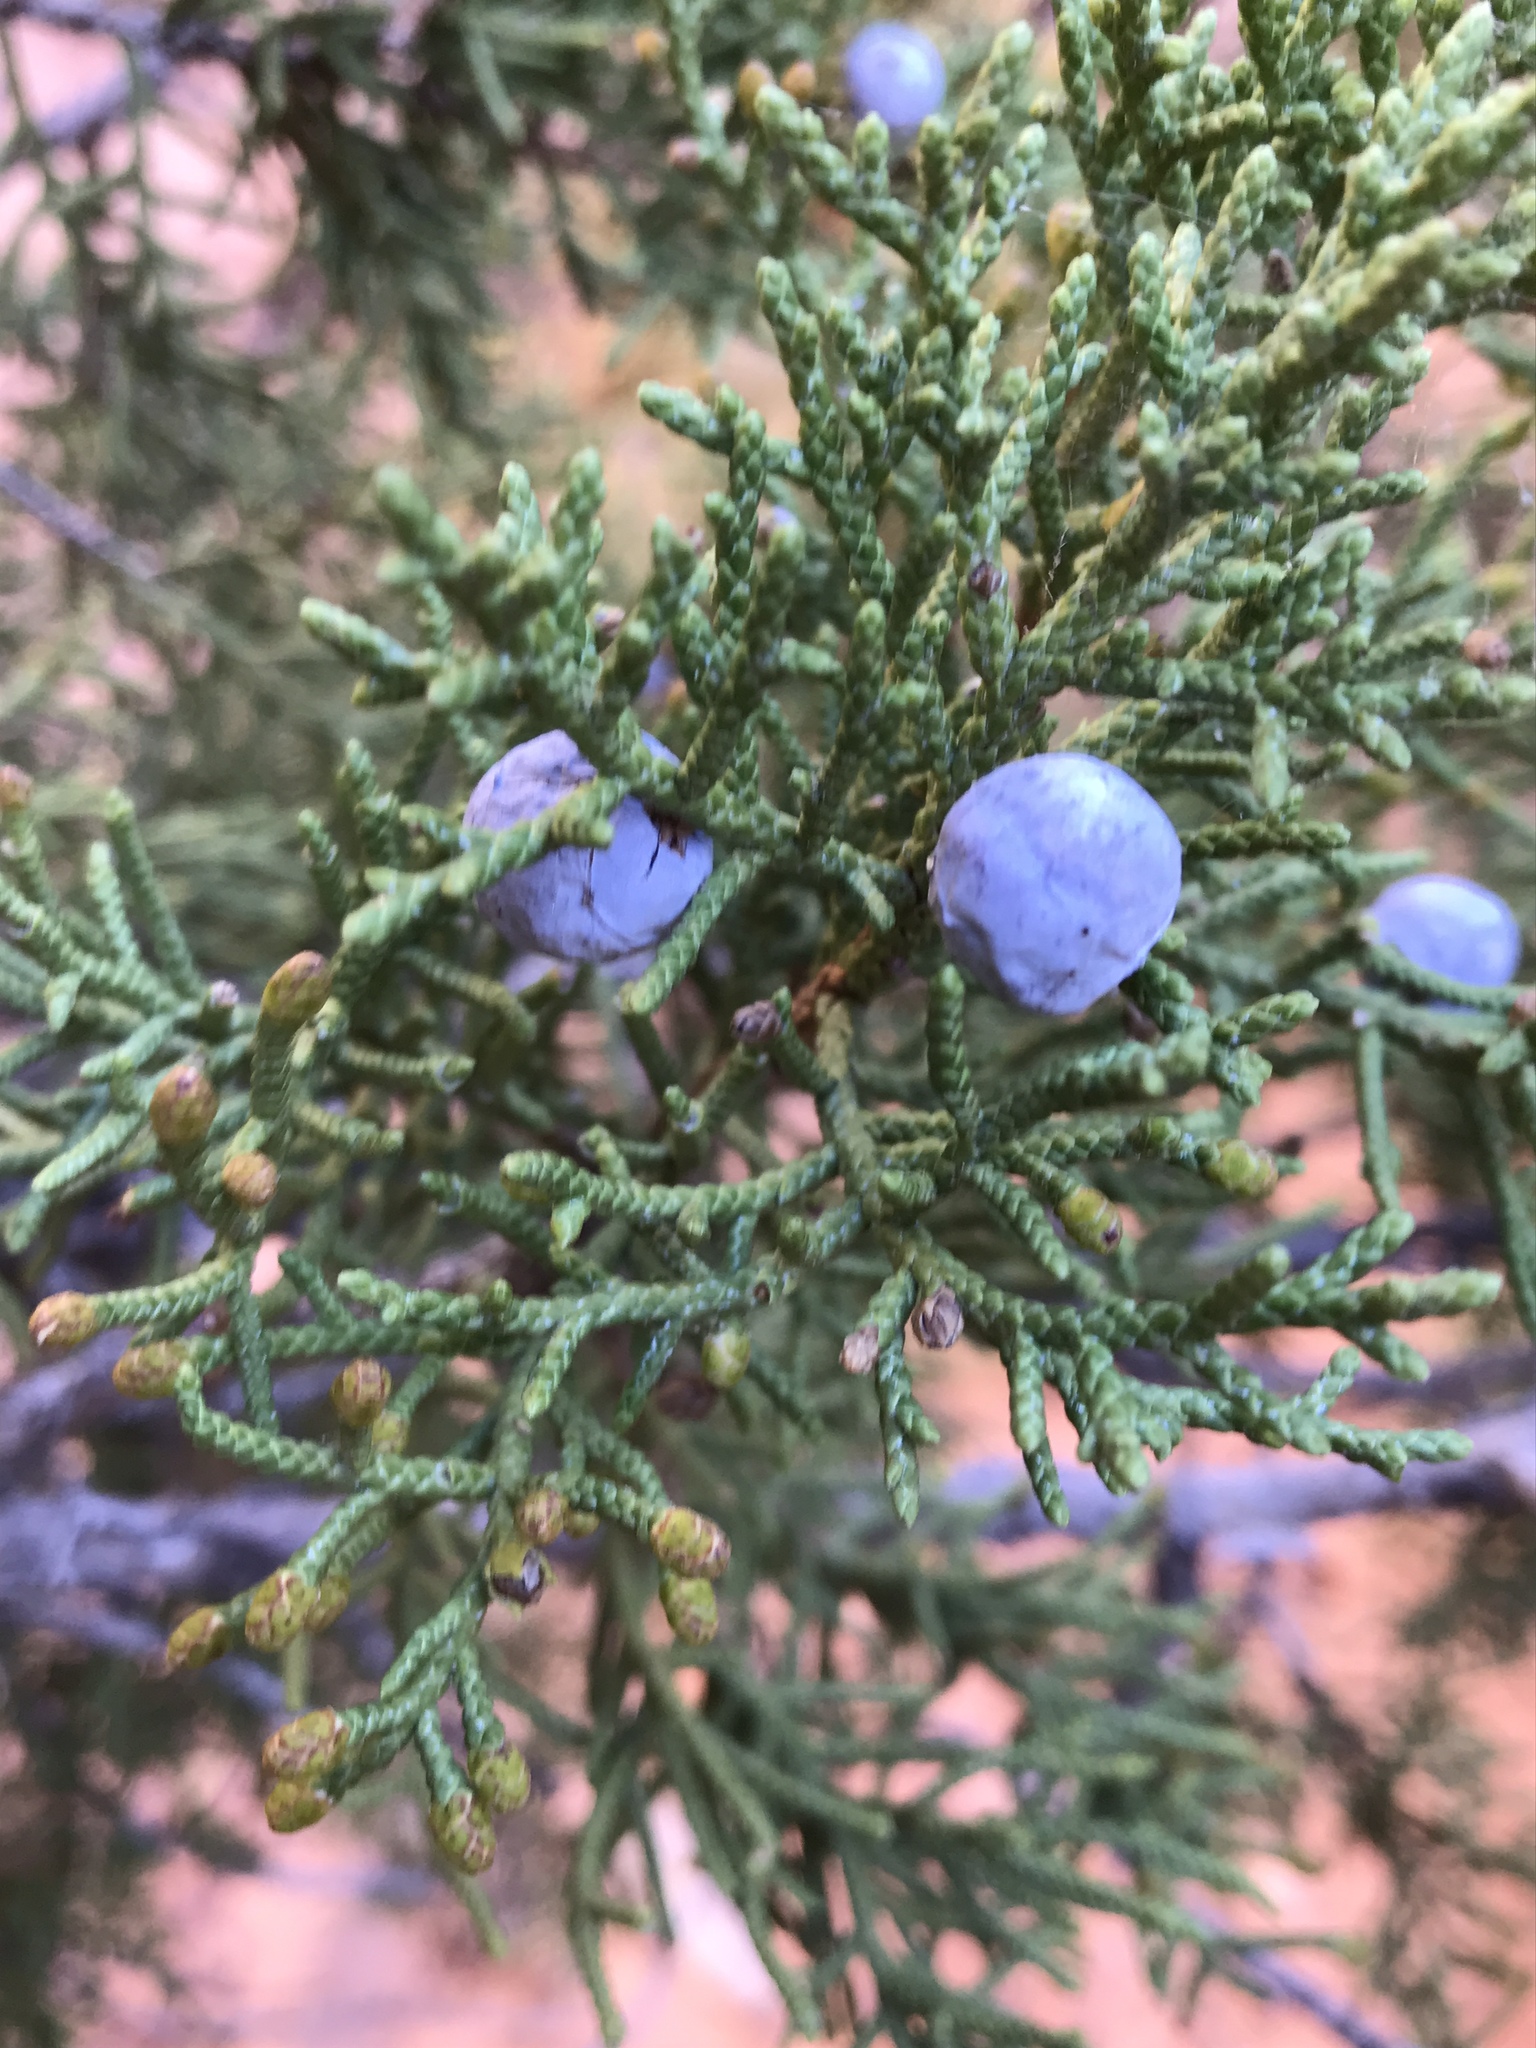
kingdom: Plantae
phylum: Tracheophyta
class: Pinopsida
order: Pinales
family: Cupressaceae
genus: Juniperus
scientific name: Juniperus osteosperma
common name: Utah juniper
